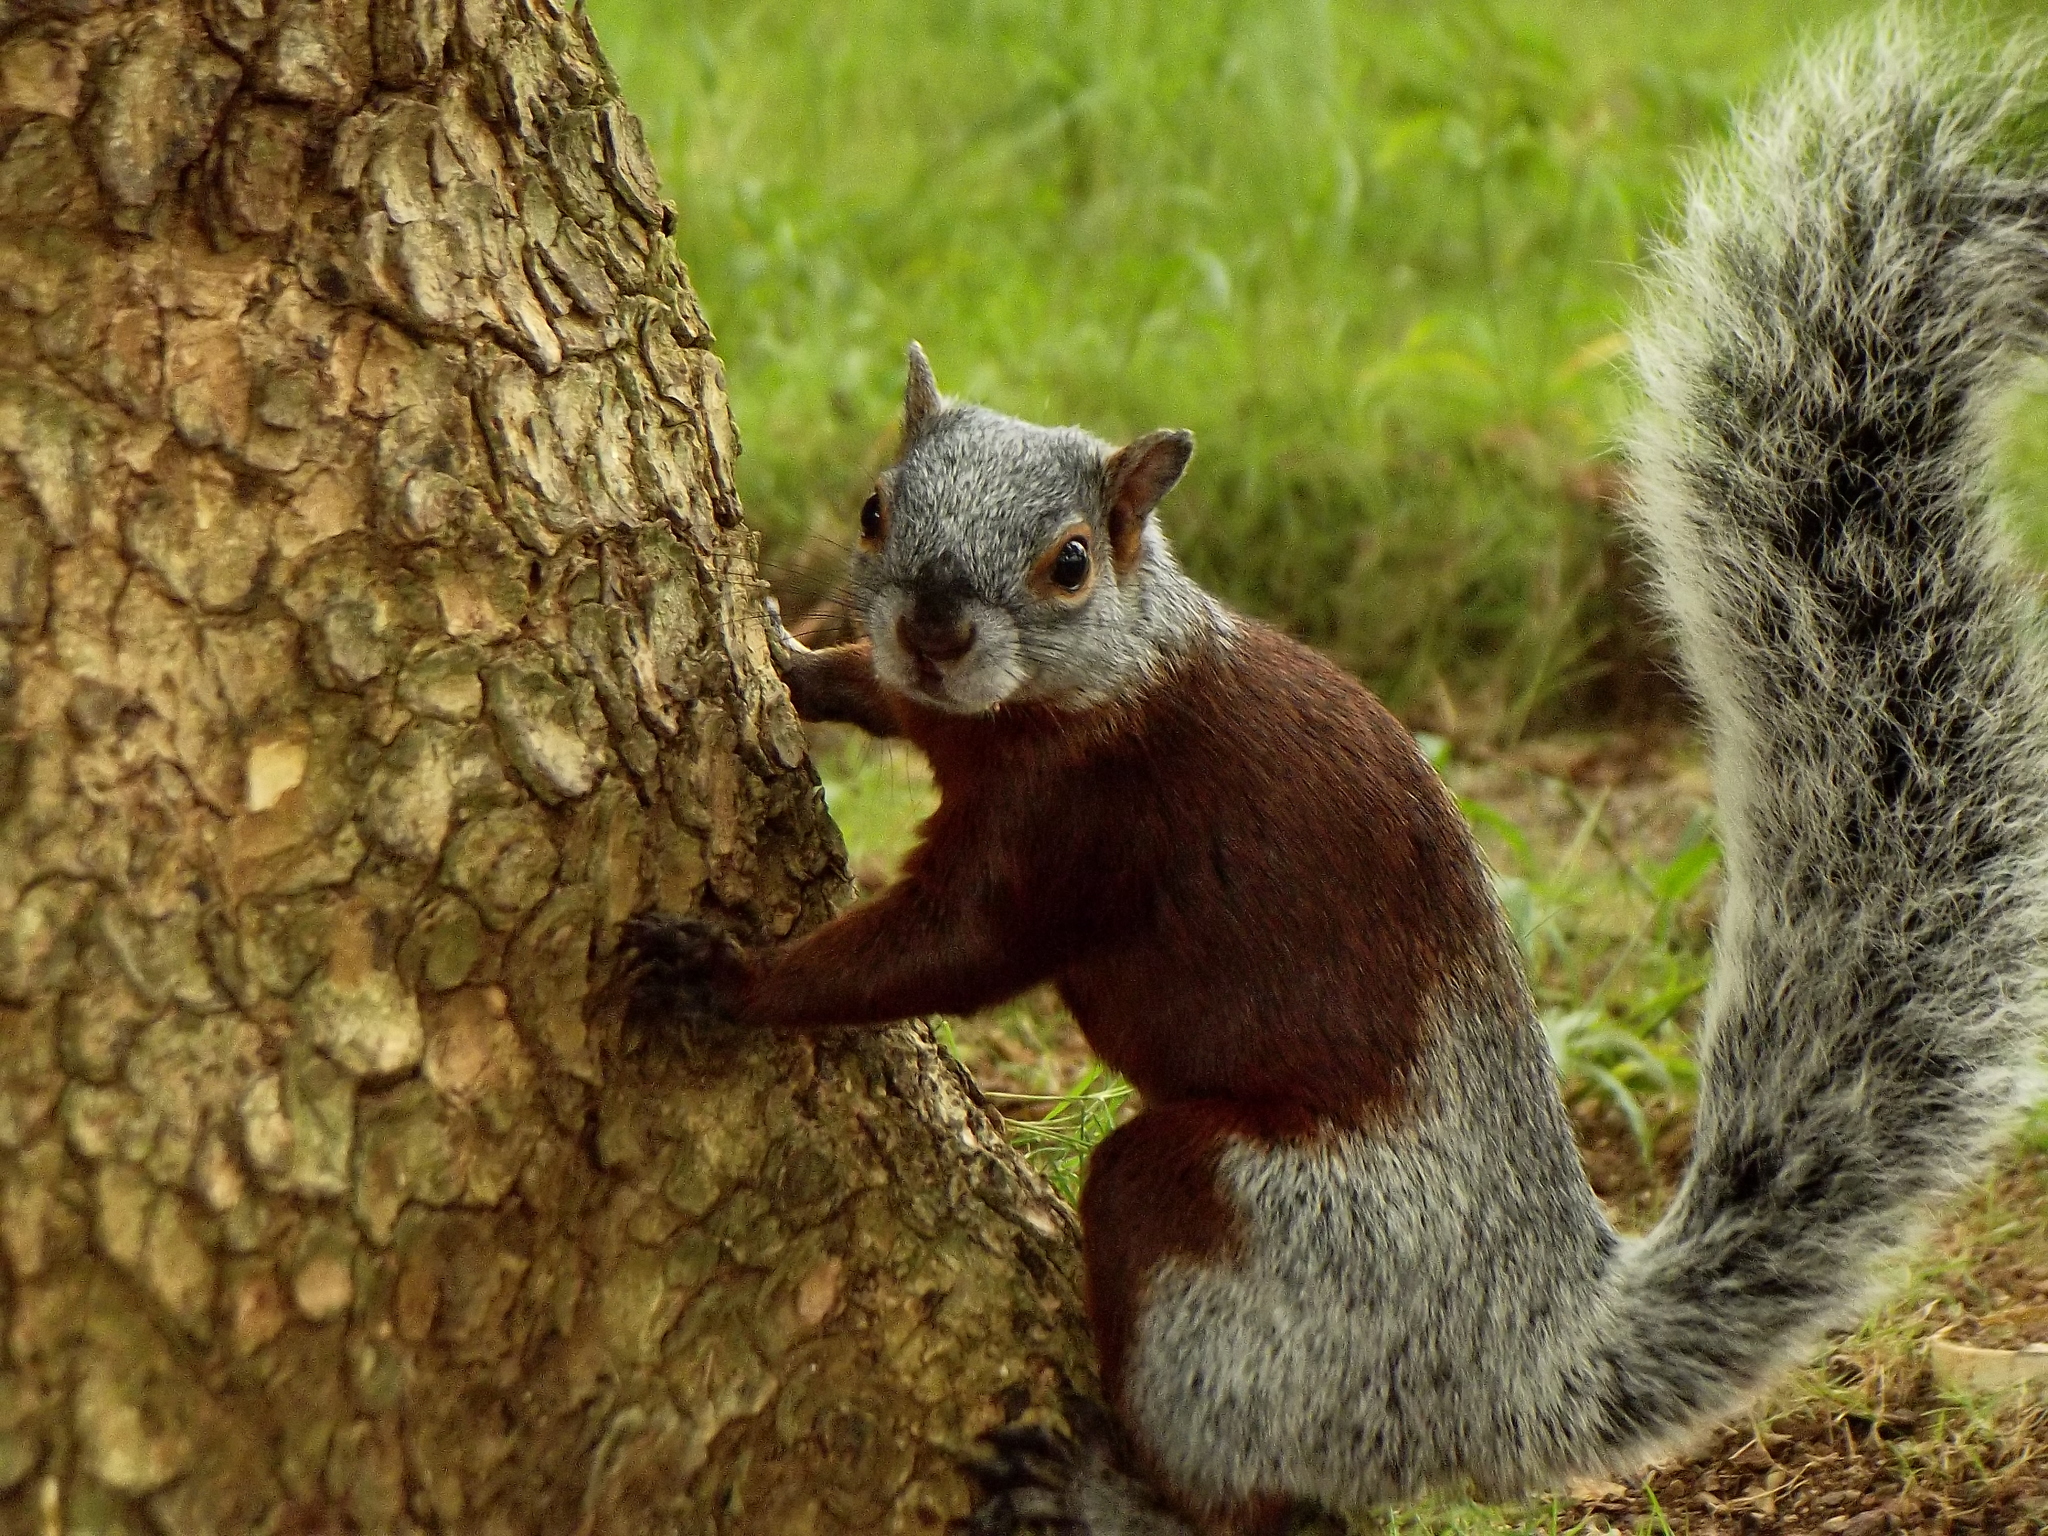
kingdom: Animalia
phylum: Chordata
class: Mammalia
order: Rodentia
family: Sciuridae
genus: Sciurus
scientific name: Sciurus aureogaster
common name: Red-bellied squirrel
